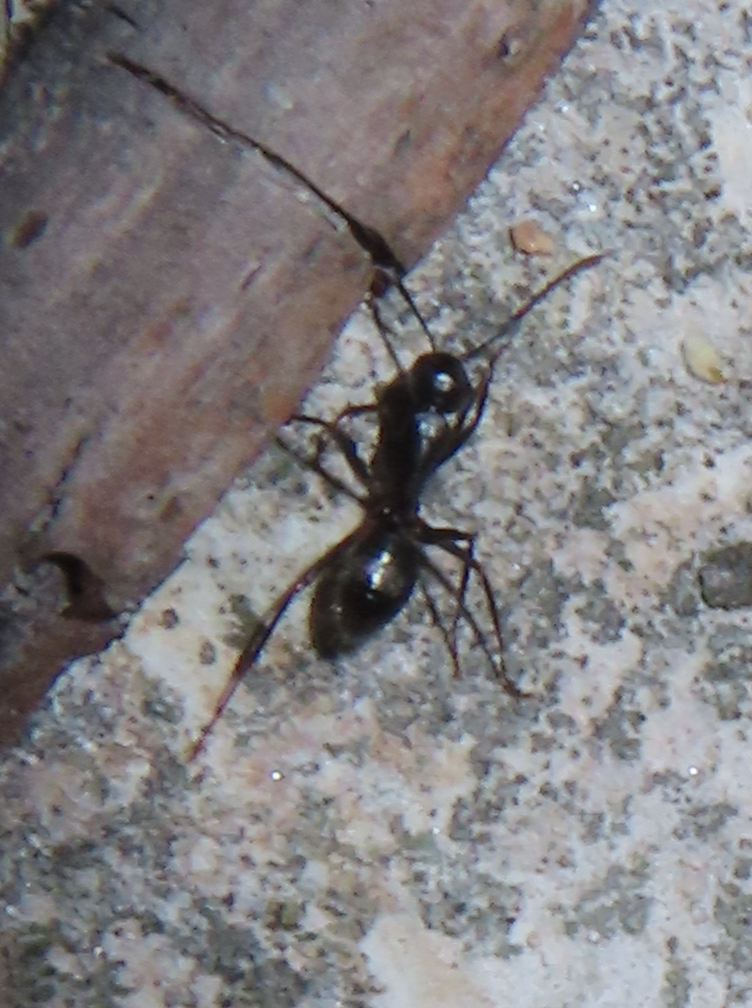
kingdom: Animalia
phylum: Arthropoda
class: Insecta
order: Hymenoptera
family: Formicidae
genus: Camponotus
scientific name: Camponotus pennsylvanicus
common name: Black carpenter ant
